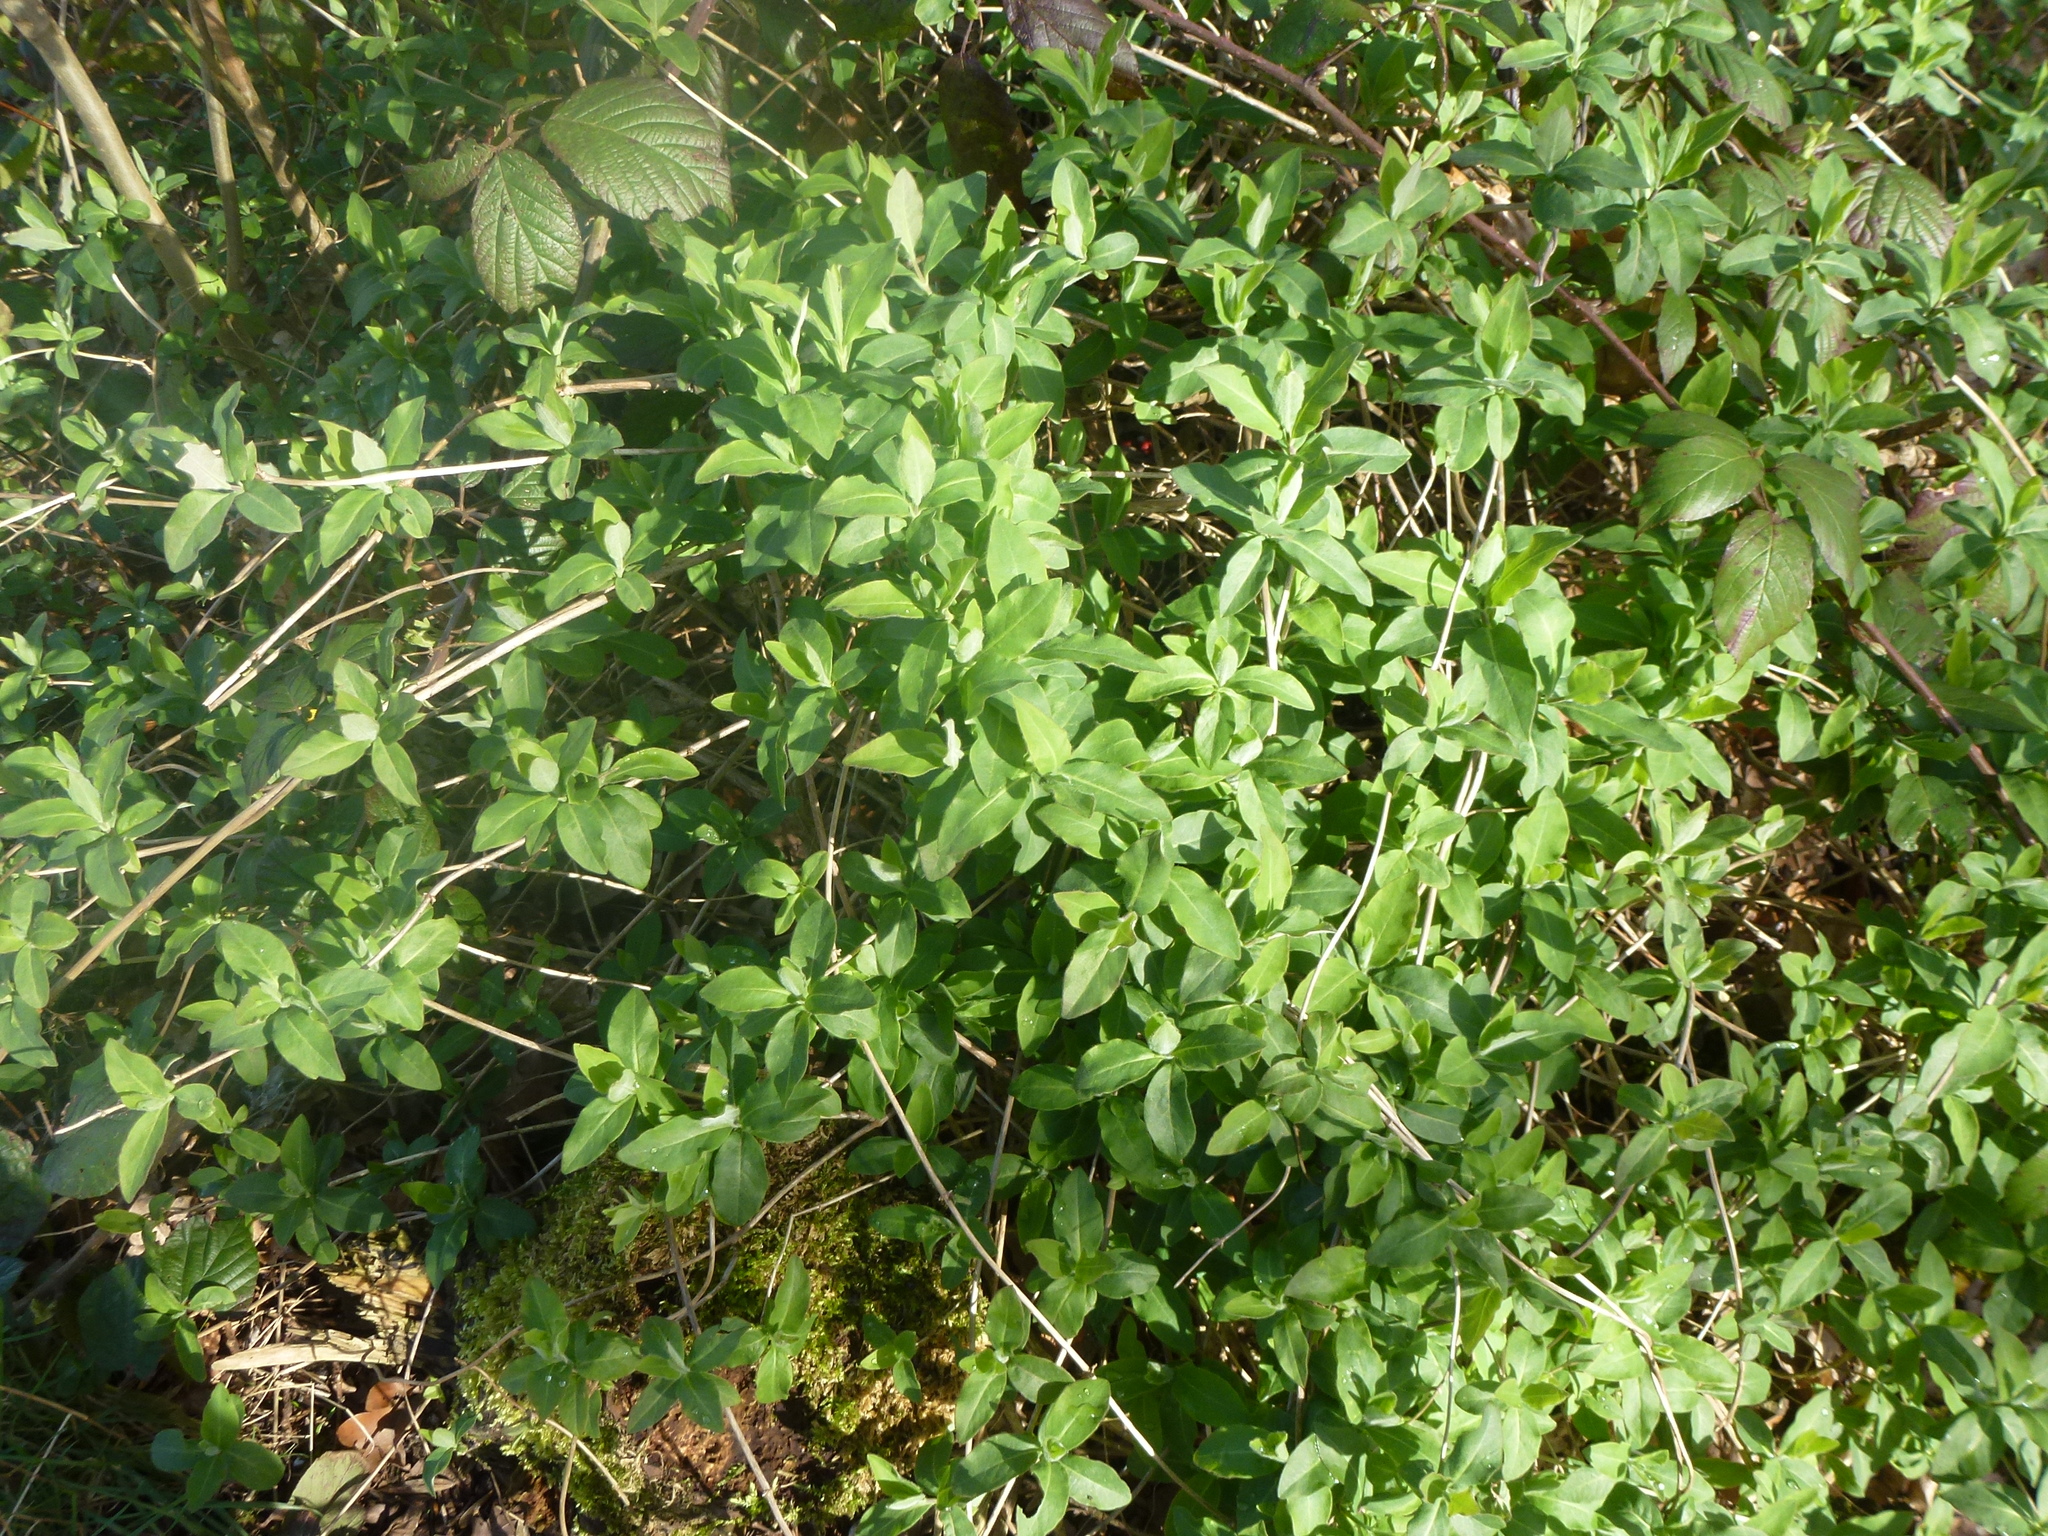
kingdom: Plantae
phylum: Tracheophyta
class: Magnoliopsida
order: Dipsacales
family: Caprifoliaceae
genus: Lonicera
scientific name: Lonicera periclymenum
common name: European honeysuckle
